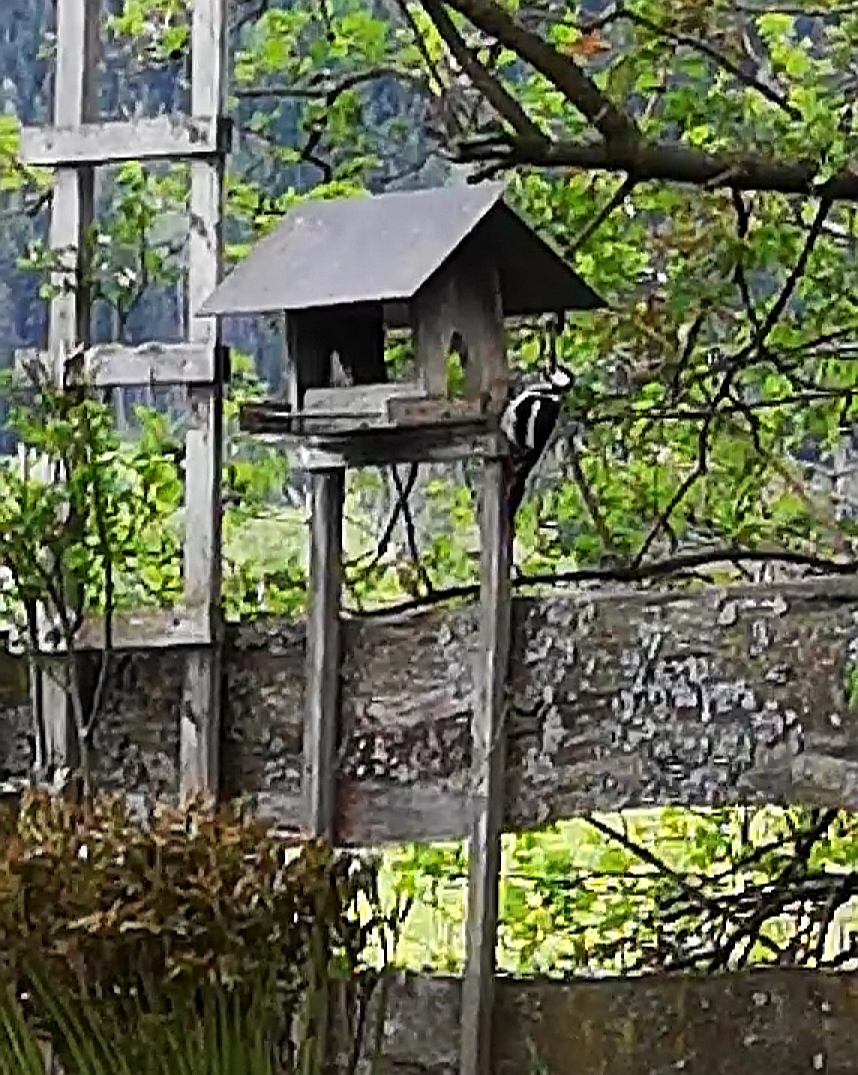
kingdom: Animalia
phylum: Chordata
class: Aves
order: Piciformes
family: Picidae
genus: Dendrocopos
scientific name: Dendrocopos major
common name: Great spotted woodpecker
